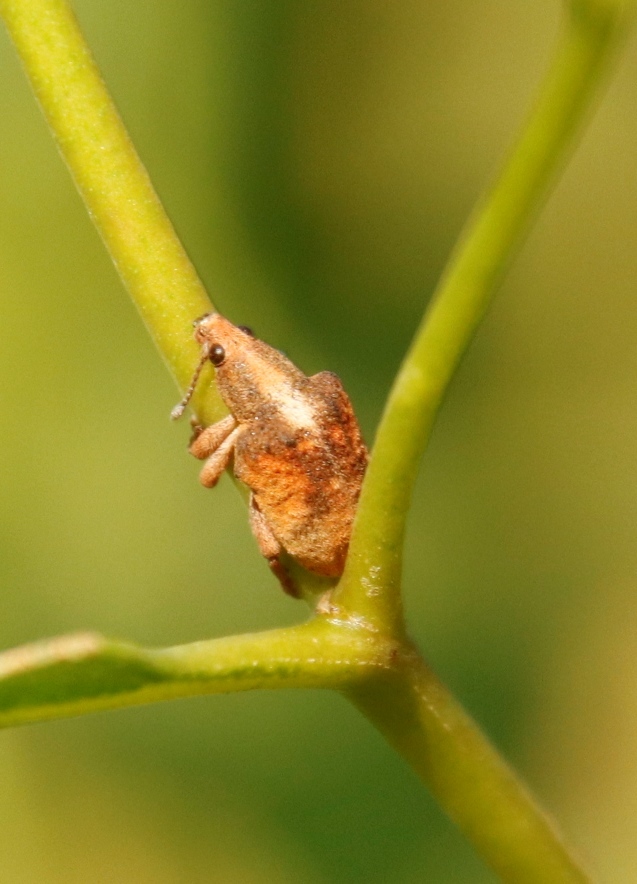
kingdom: Animalia
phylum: Arthropoda
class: Insecta
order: Coleoptera
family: Curculionidae
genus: Gonipterus
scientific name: Gonipterus
